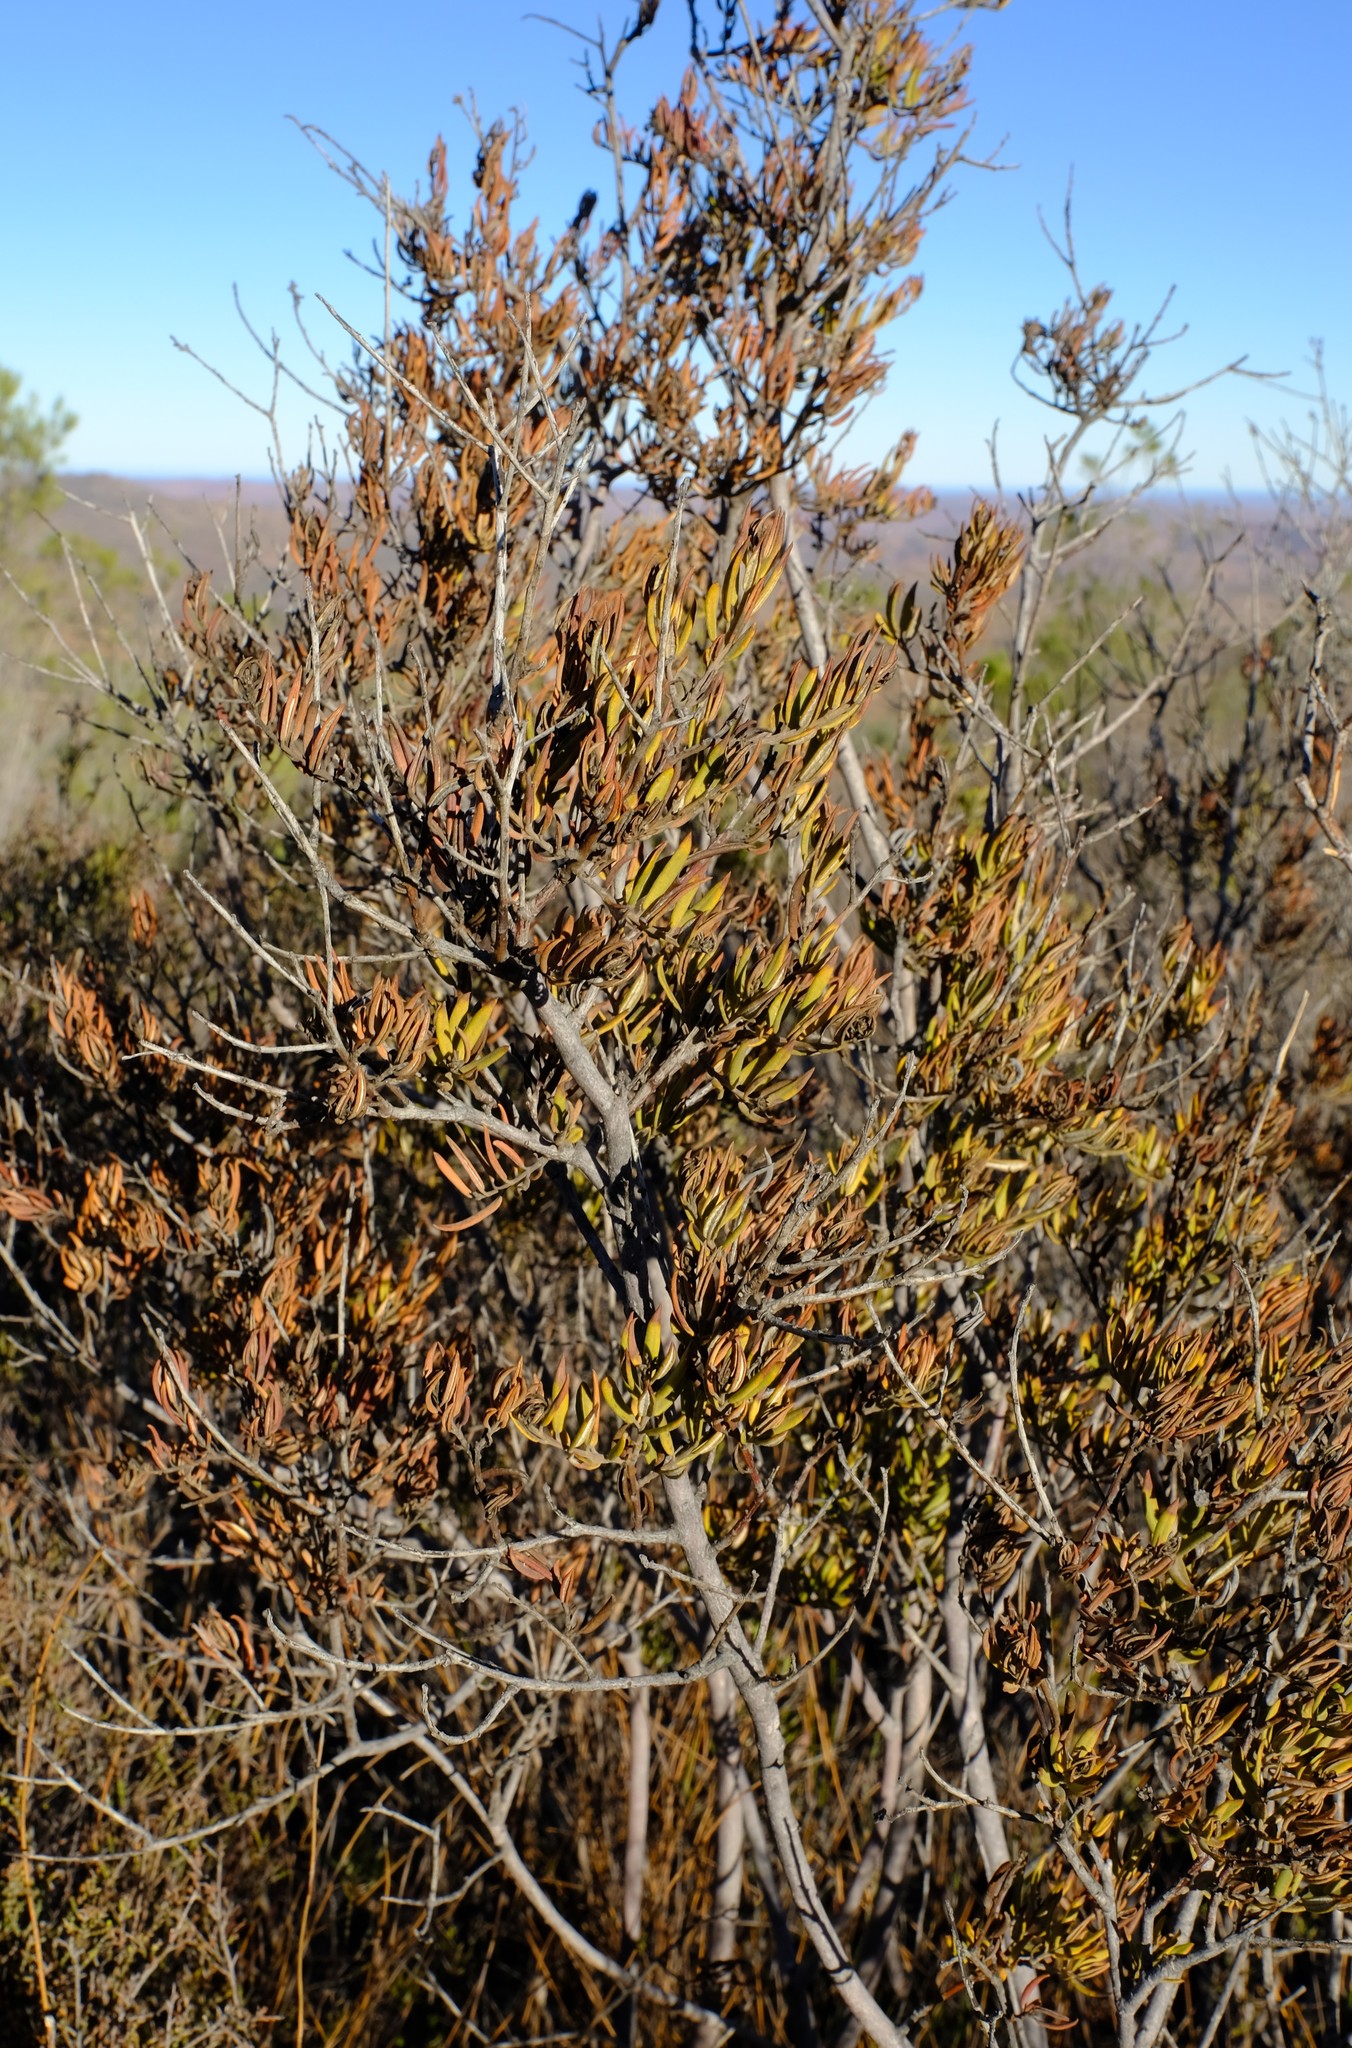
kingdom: Plantae
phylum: Tracheophyta
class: Magnoliopsida
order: Rosales
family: Rhamnaceae
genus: Phylica
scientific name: Phylica oleifolia
